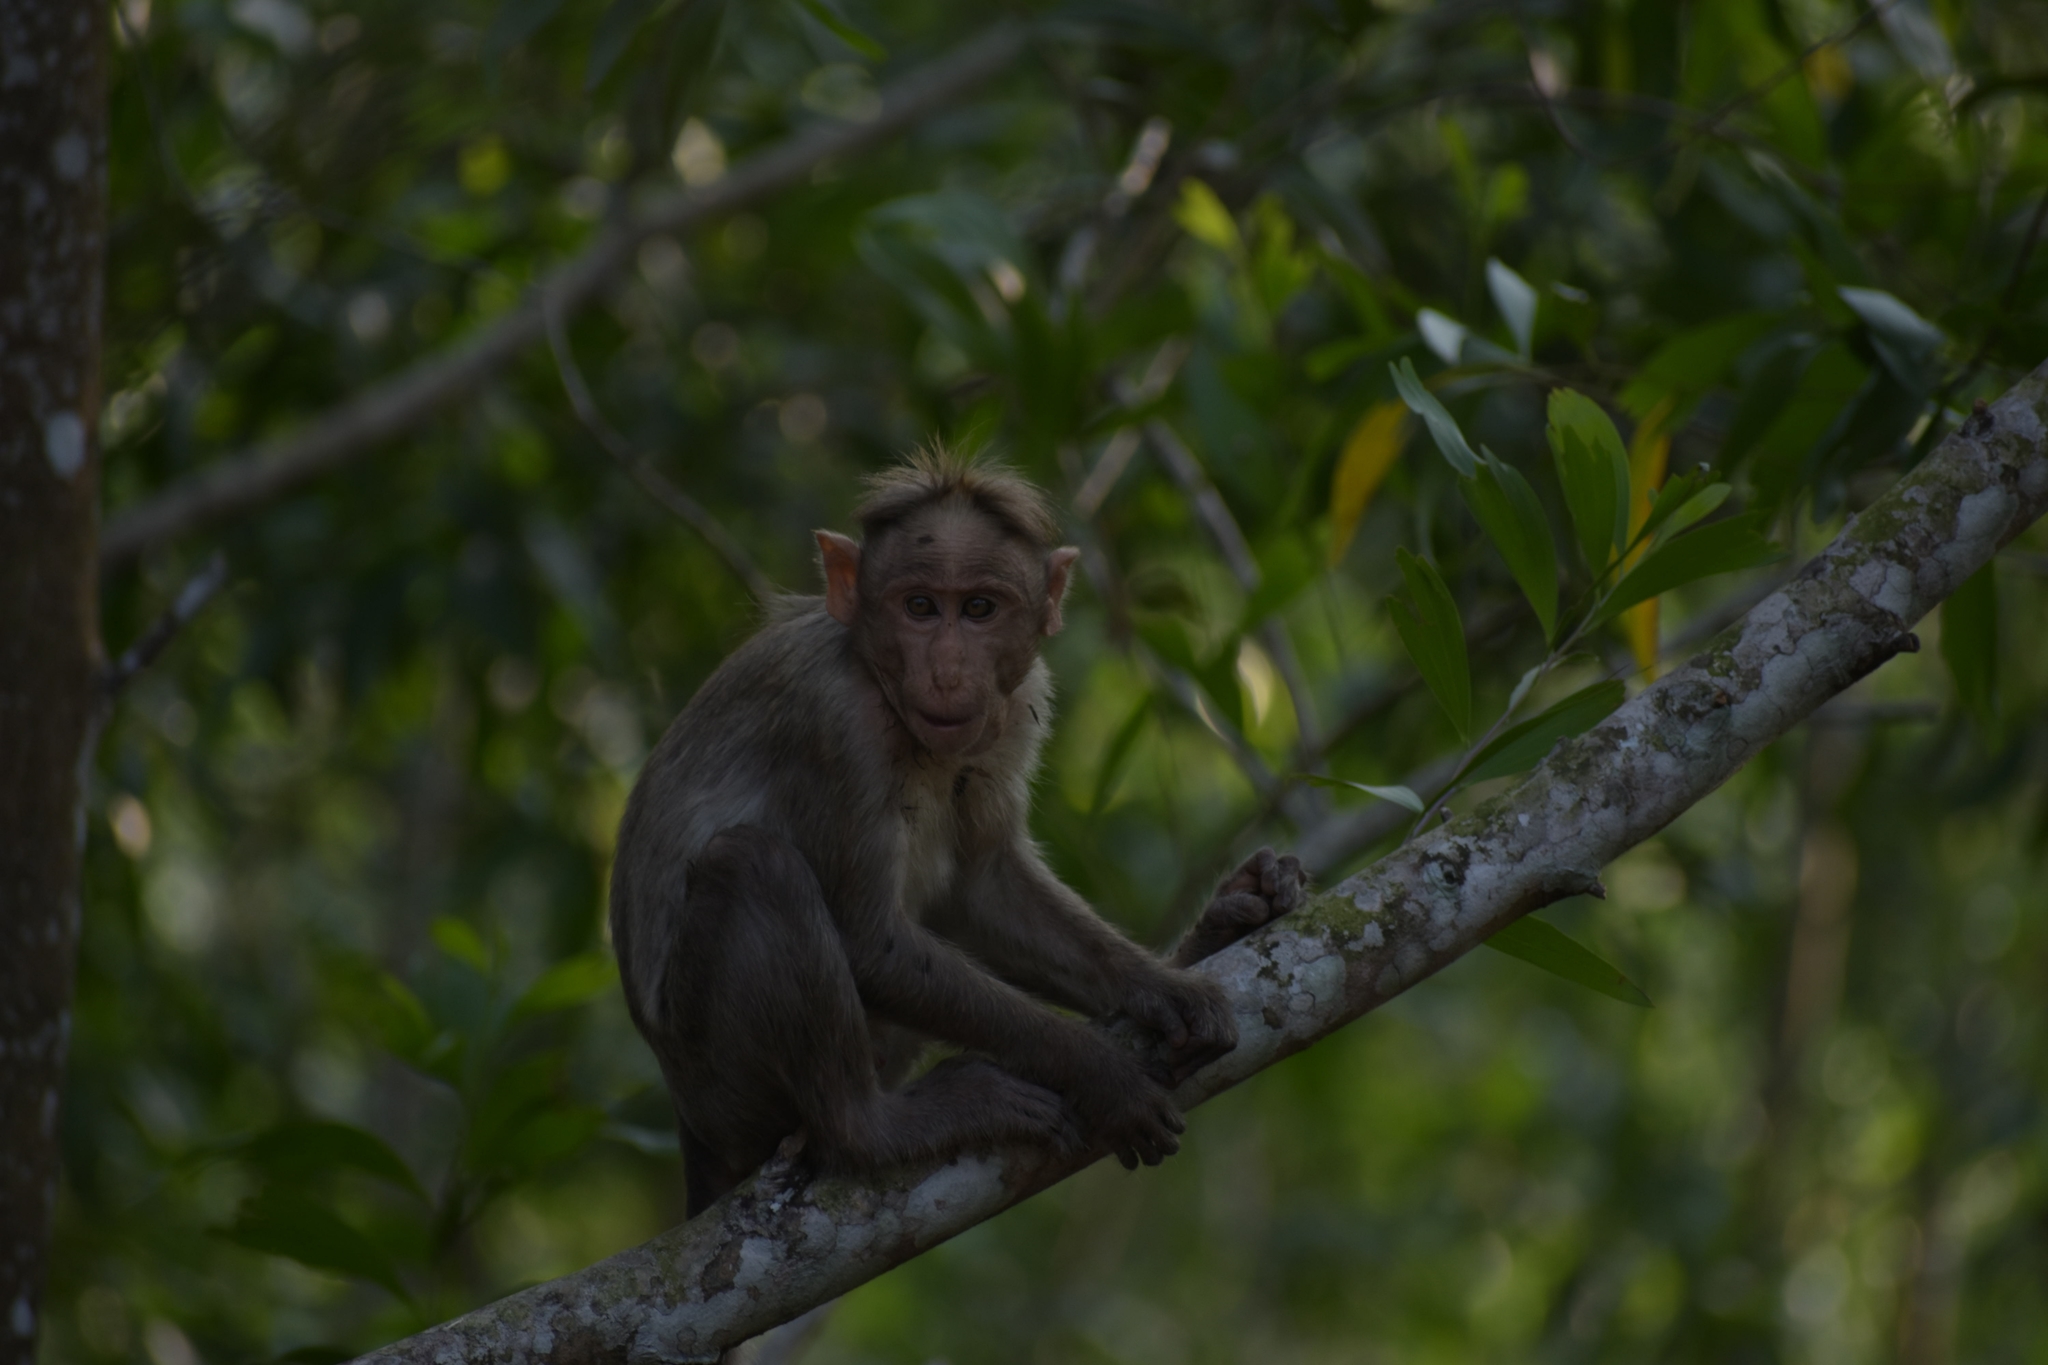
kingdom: Animalia
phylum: Chordata
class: Mammalia
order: Primates
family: Cercopithecidae
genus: Macaca
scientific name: Macaca radiata
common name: Bonnet macaque
